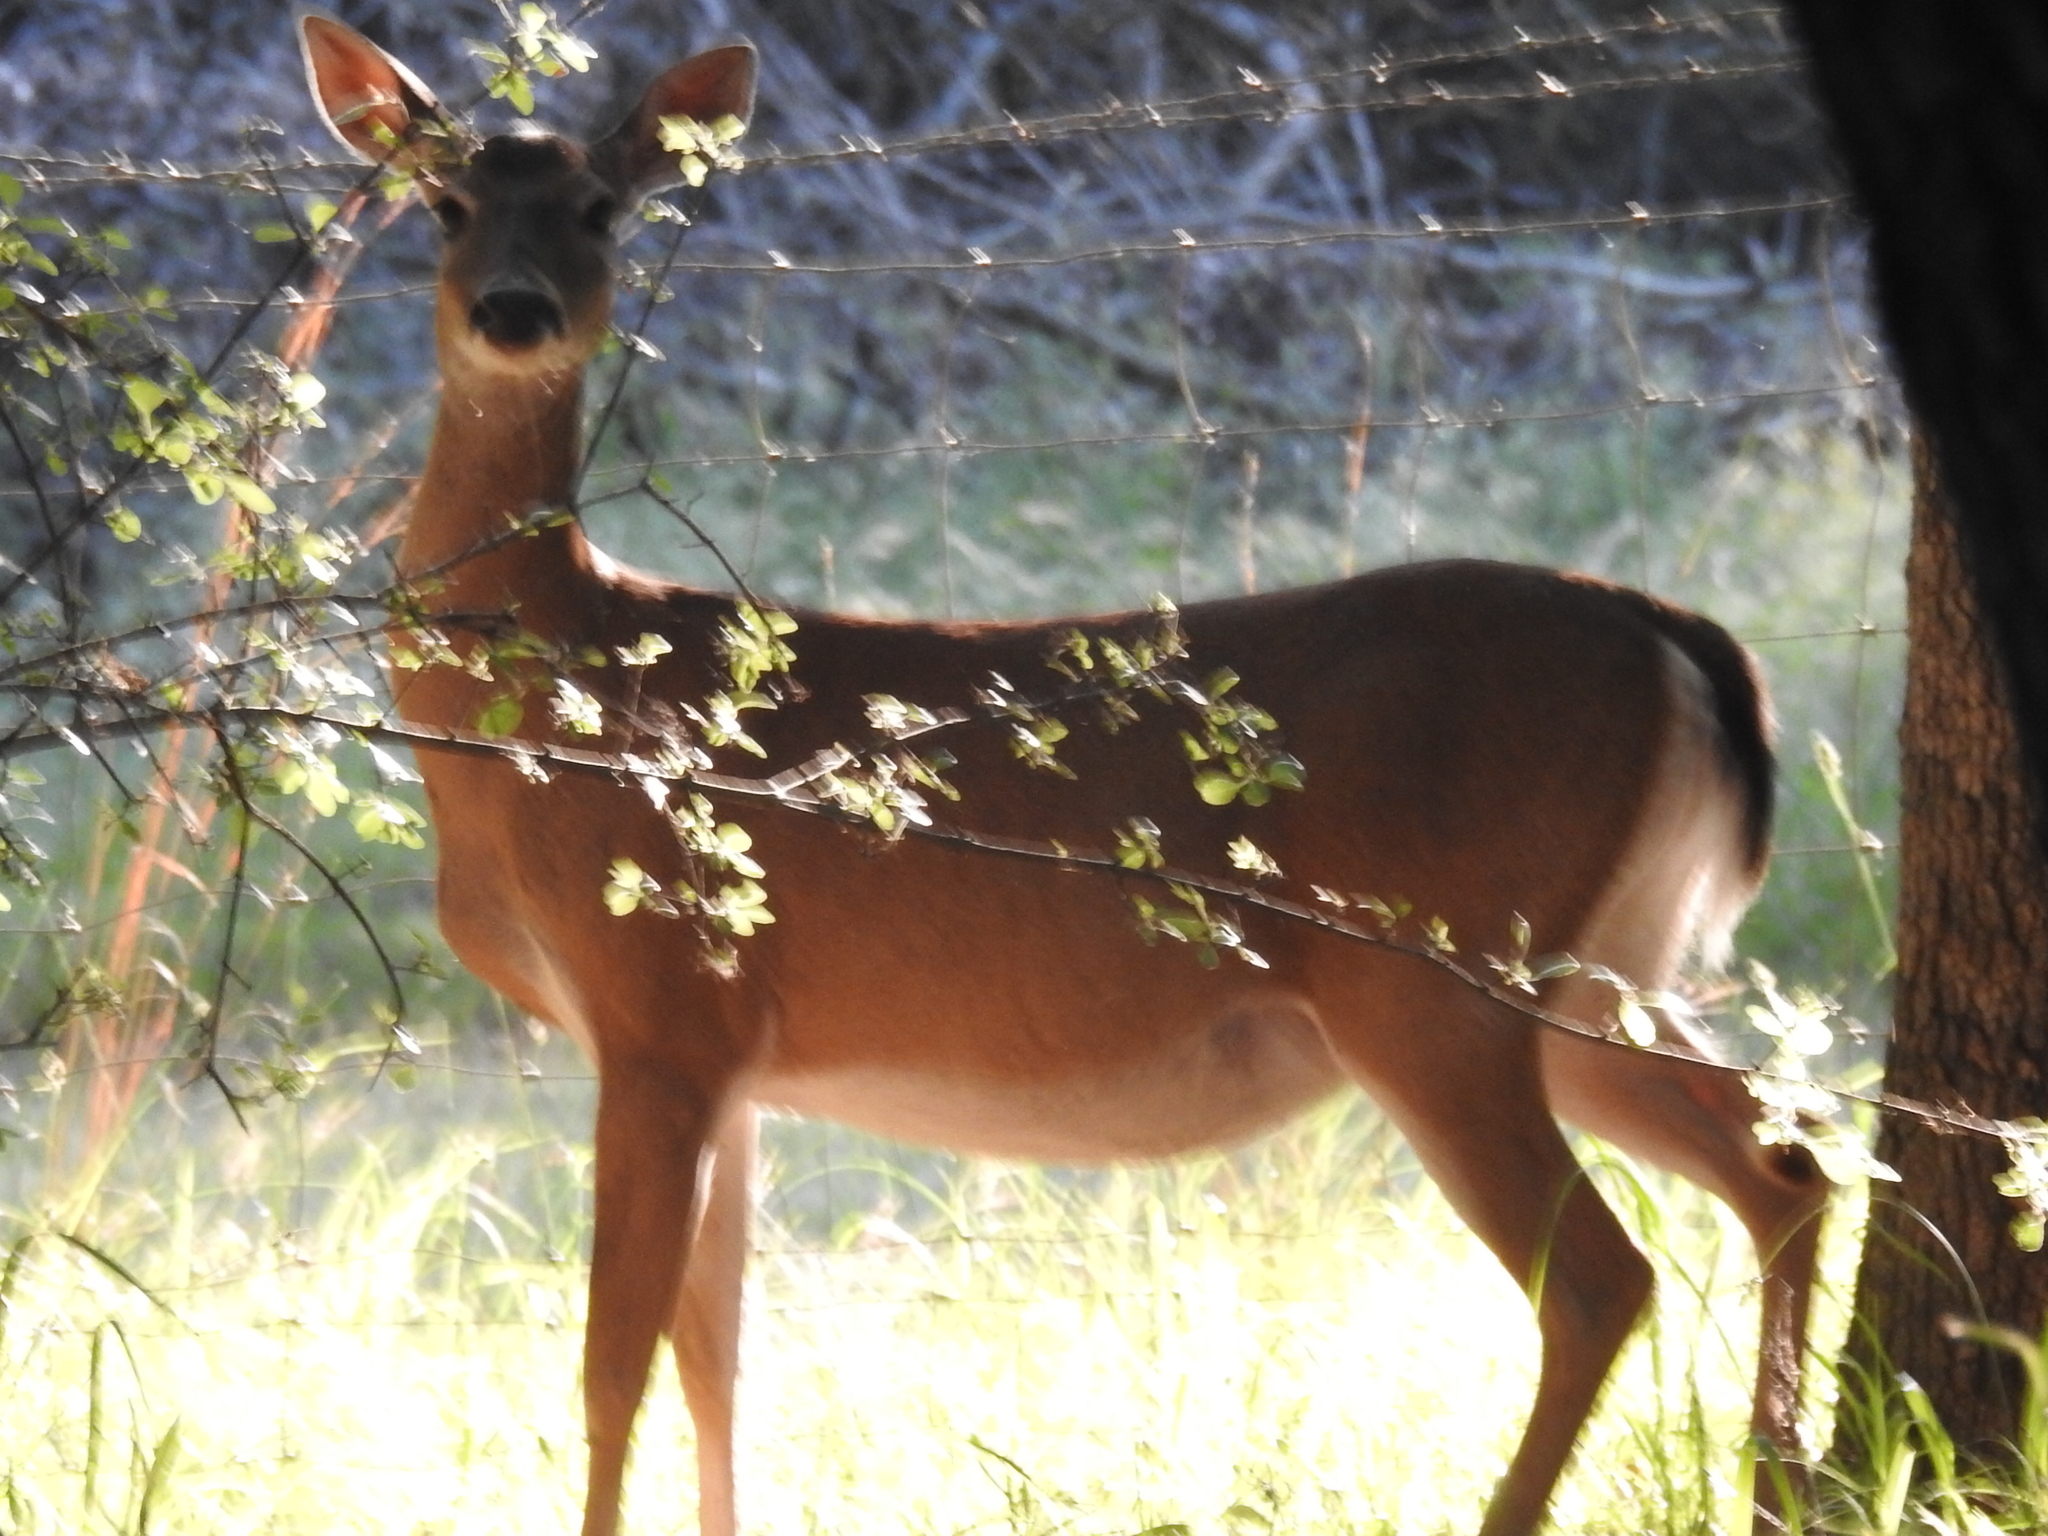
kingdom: Animalia
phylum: Chordata
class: Mammalia
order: Artiodactyla
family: Cervidae
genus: Odocoileus
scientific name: Odocoileus virginianus
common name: White-tailed deer
